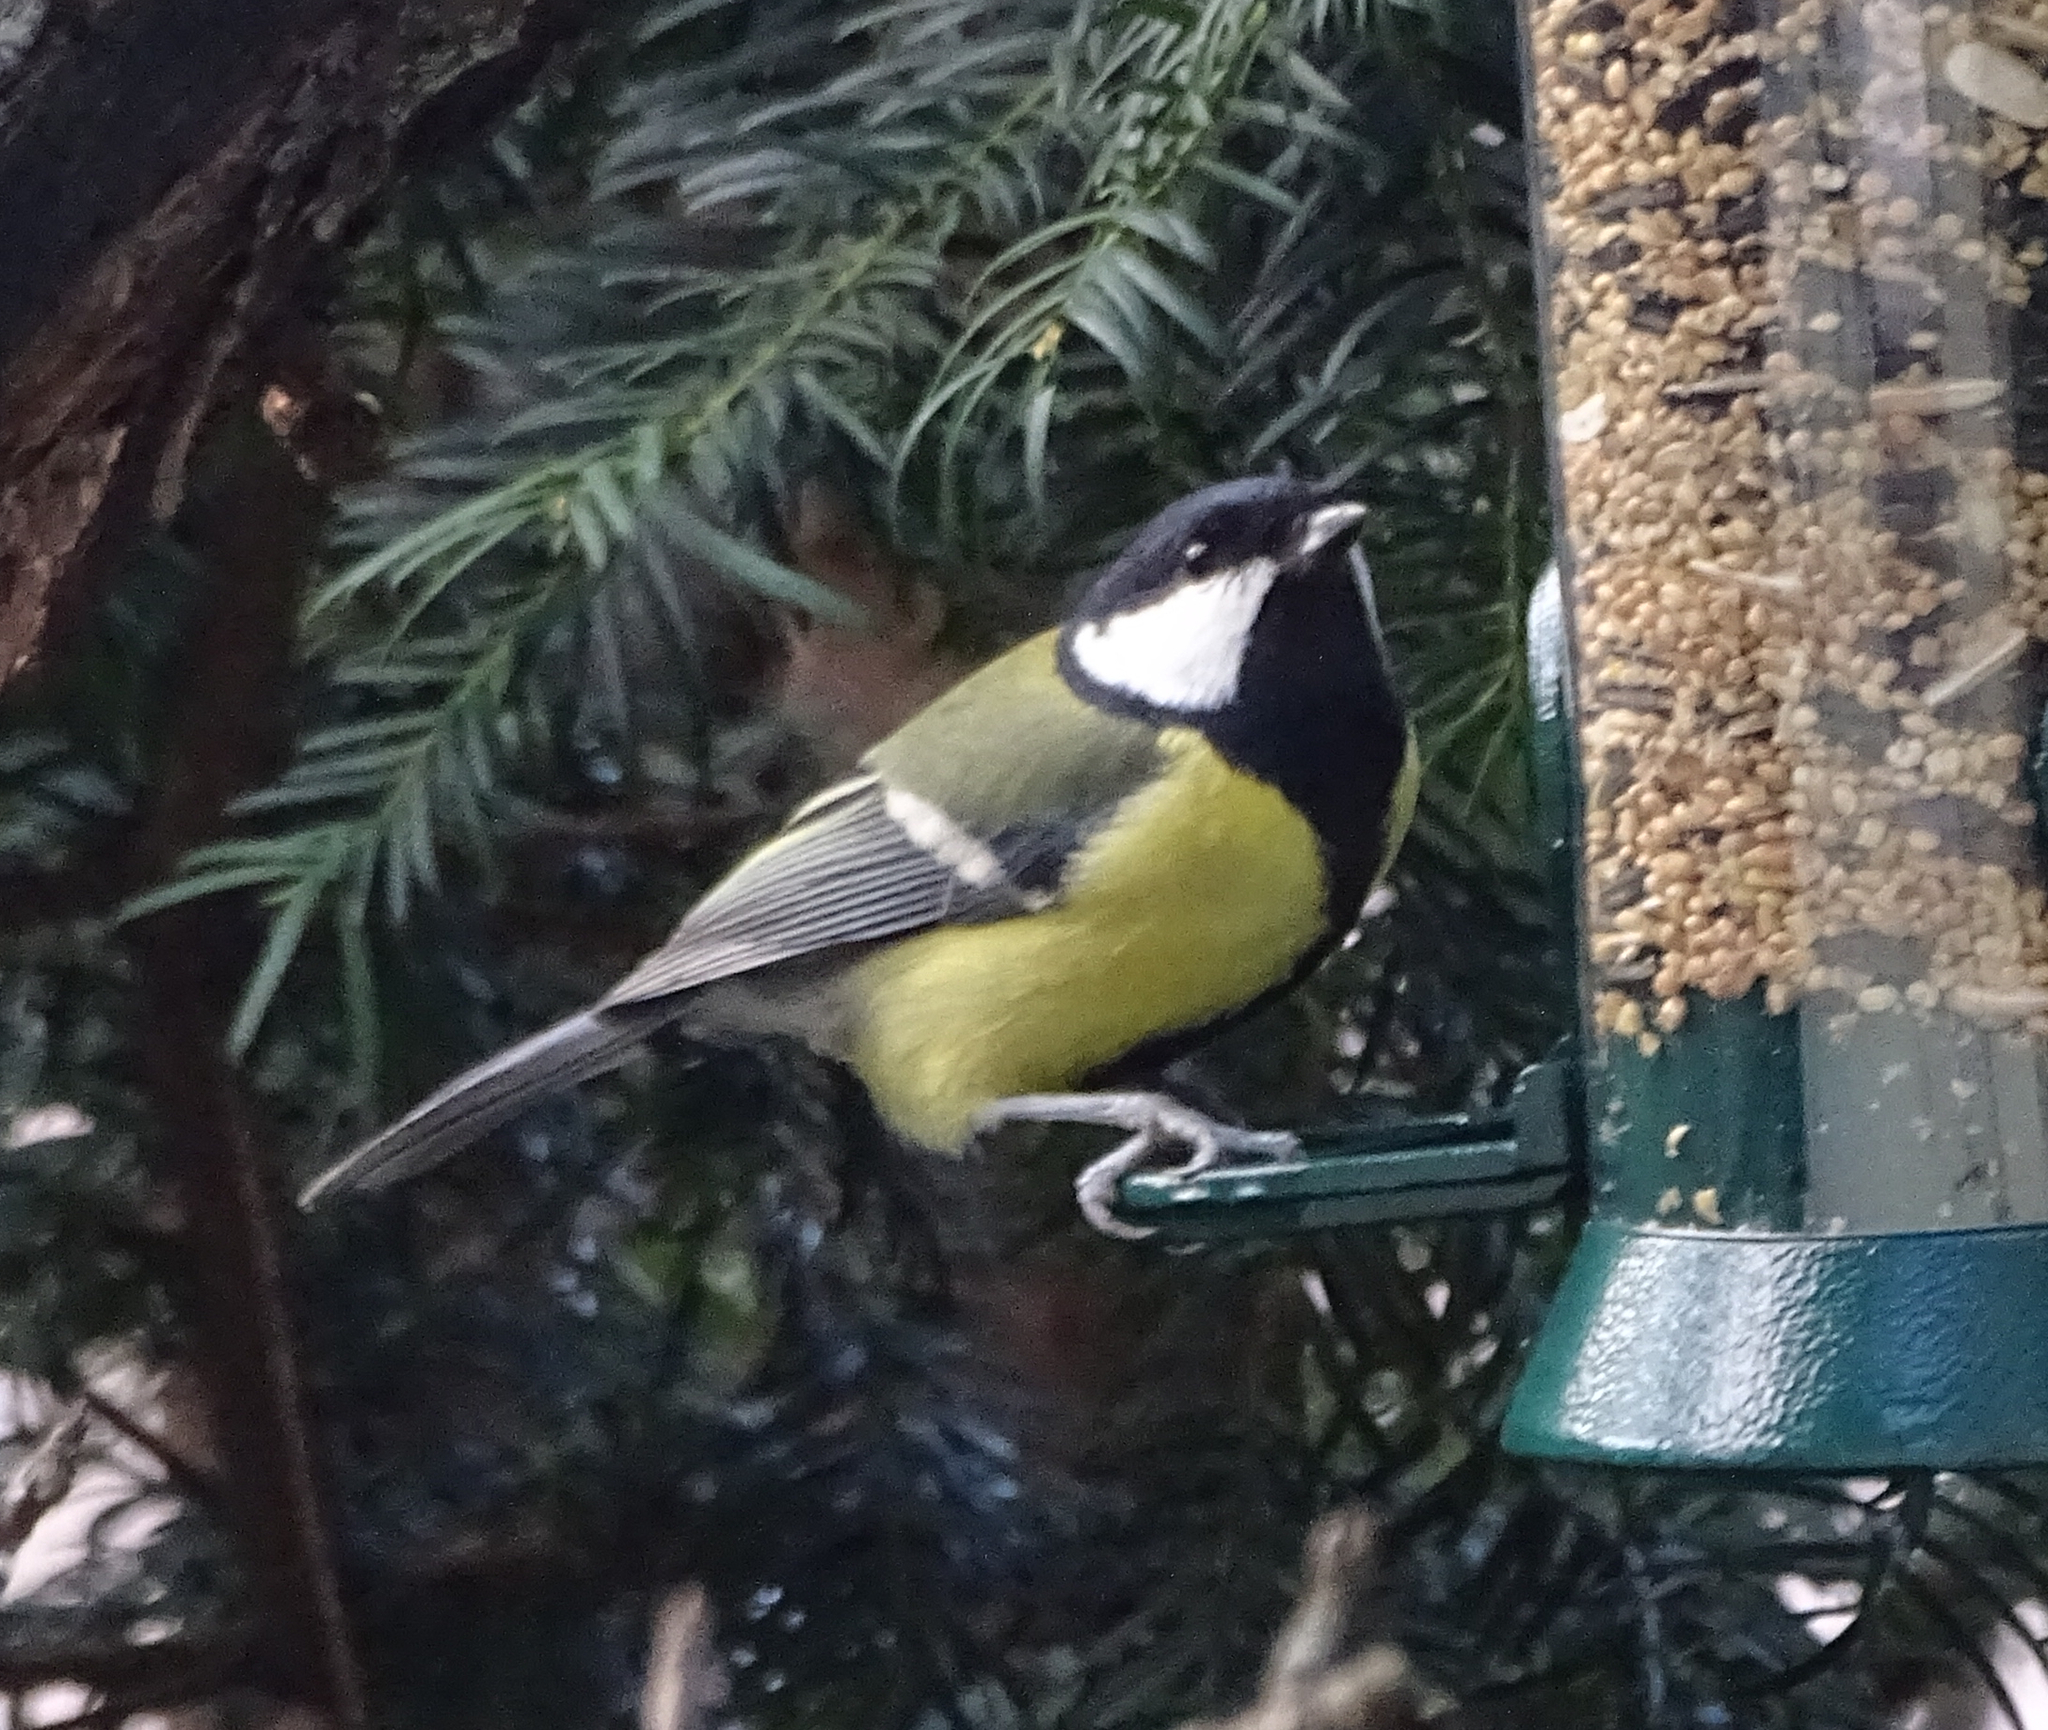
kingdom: Animalia
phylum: Chordata
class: Aves
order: Passeriformes
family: Paridae
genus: Parus
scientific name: Parus major
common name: Great tit
